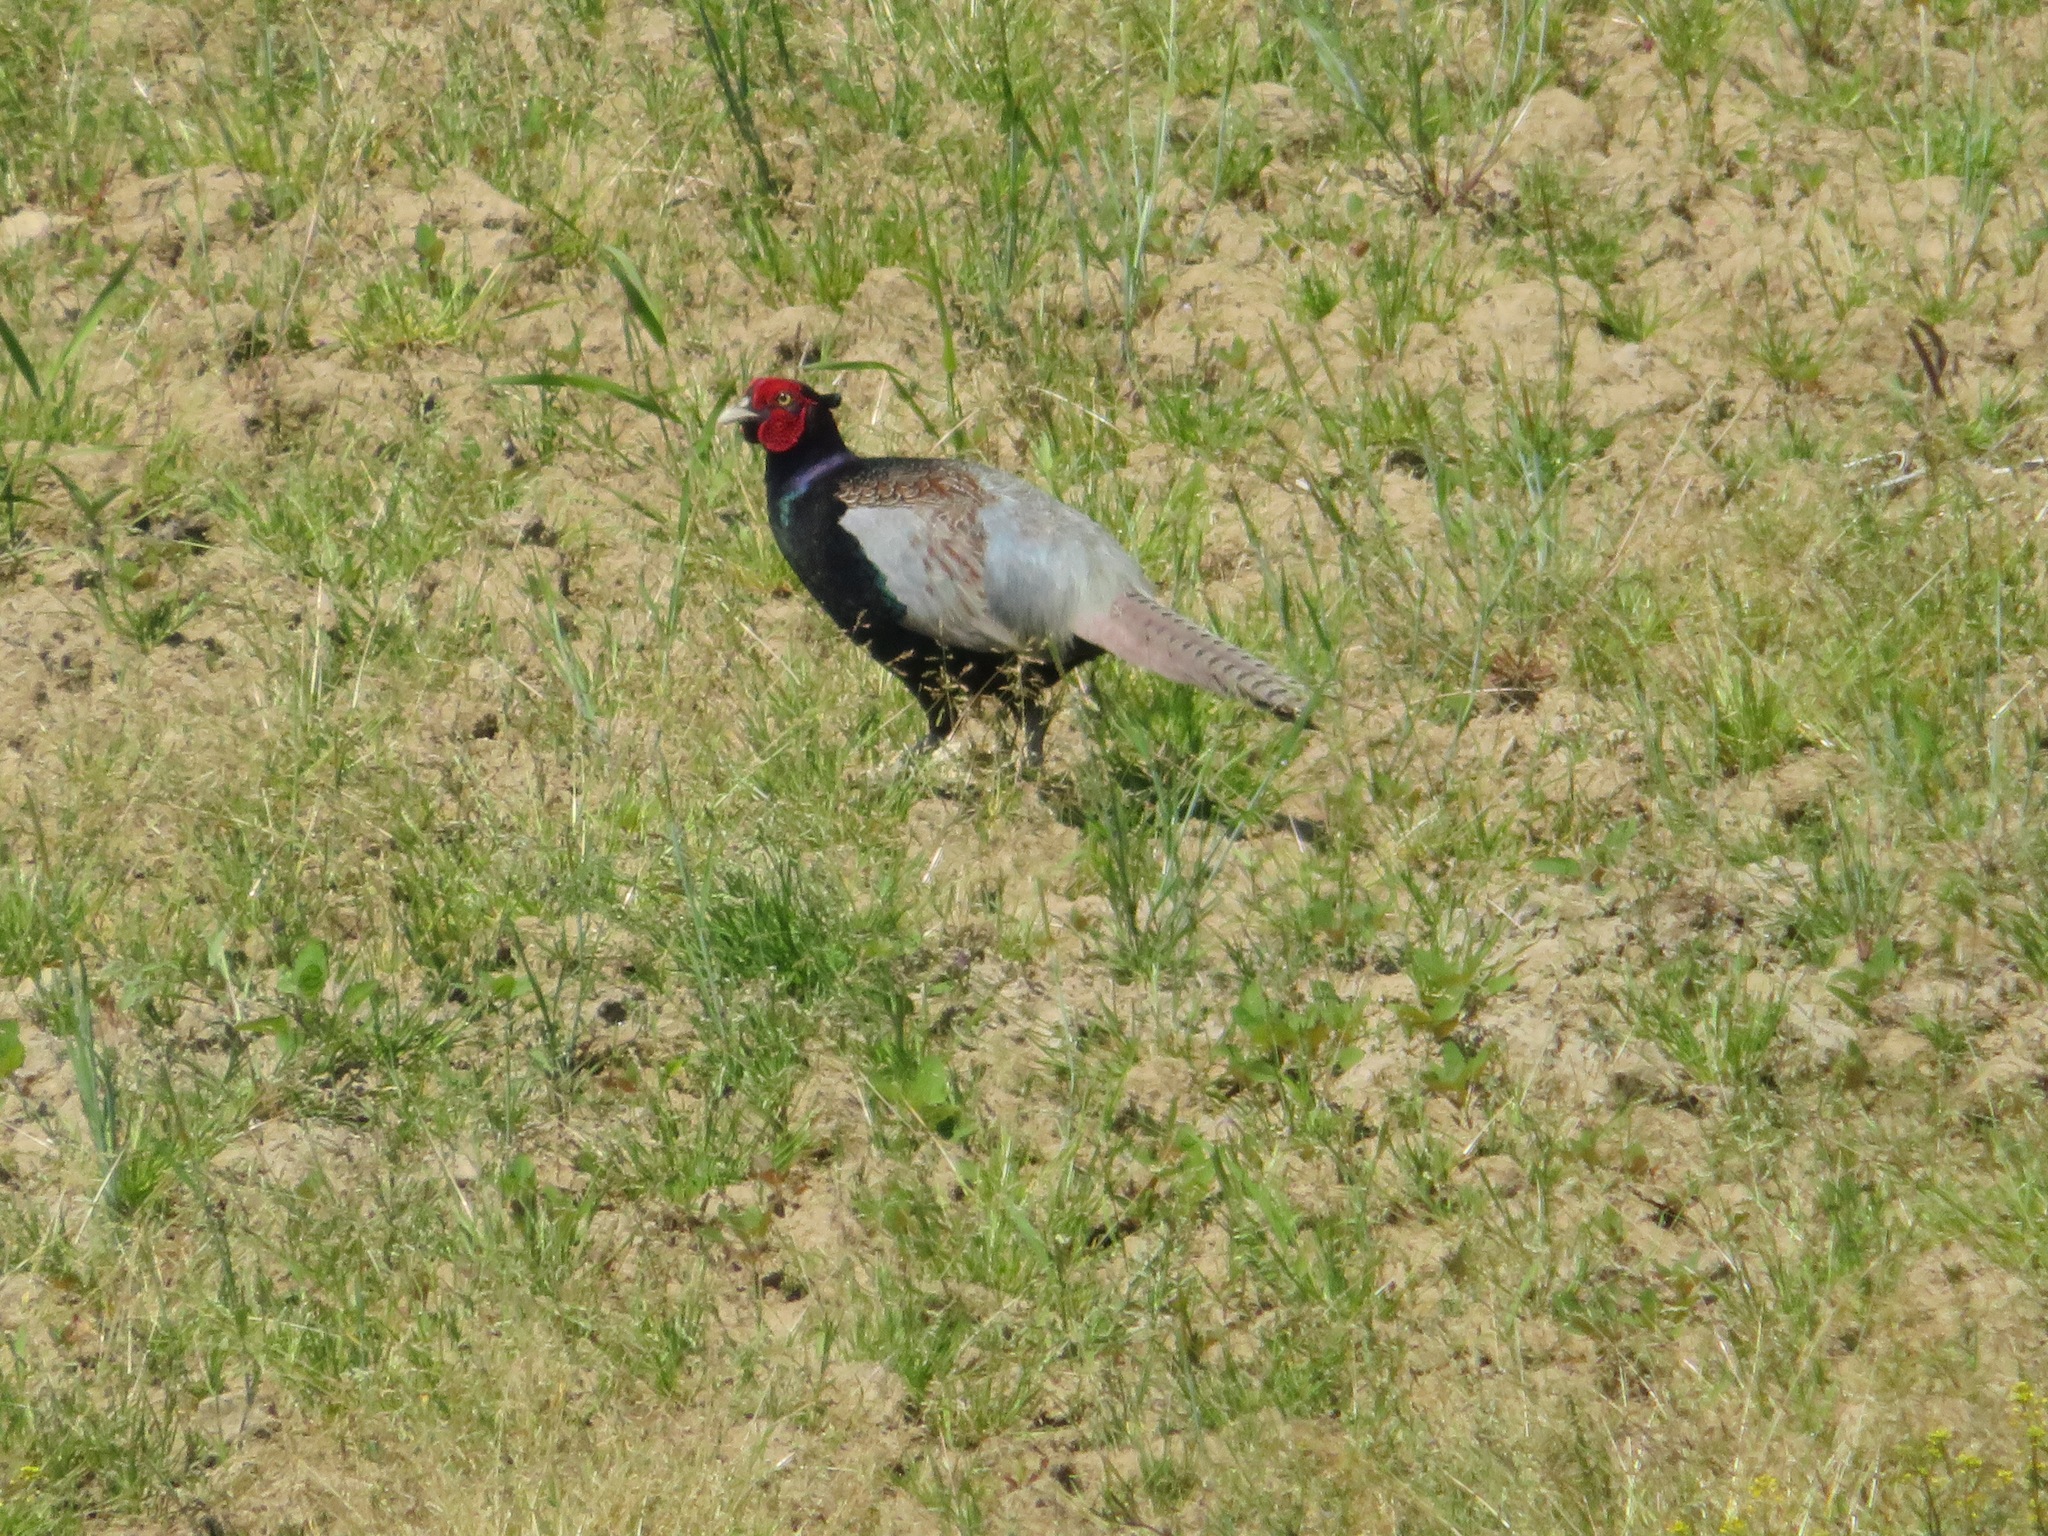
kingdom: Animalia
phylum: Chordata
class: Aves
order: Galliformes
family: Phasianidae
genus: Phasianus
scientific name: Phasianus versicolor
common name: Green pheasant
